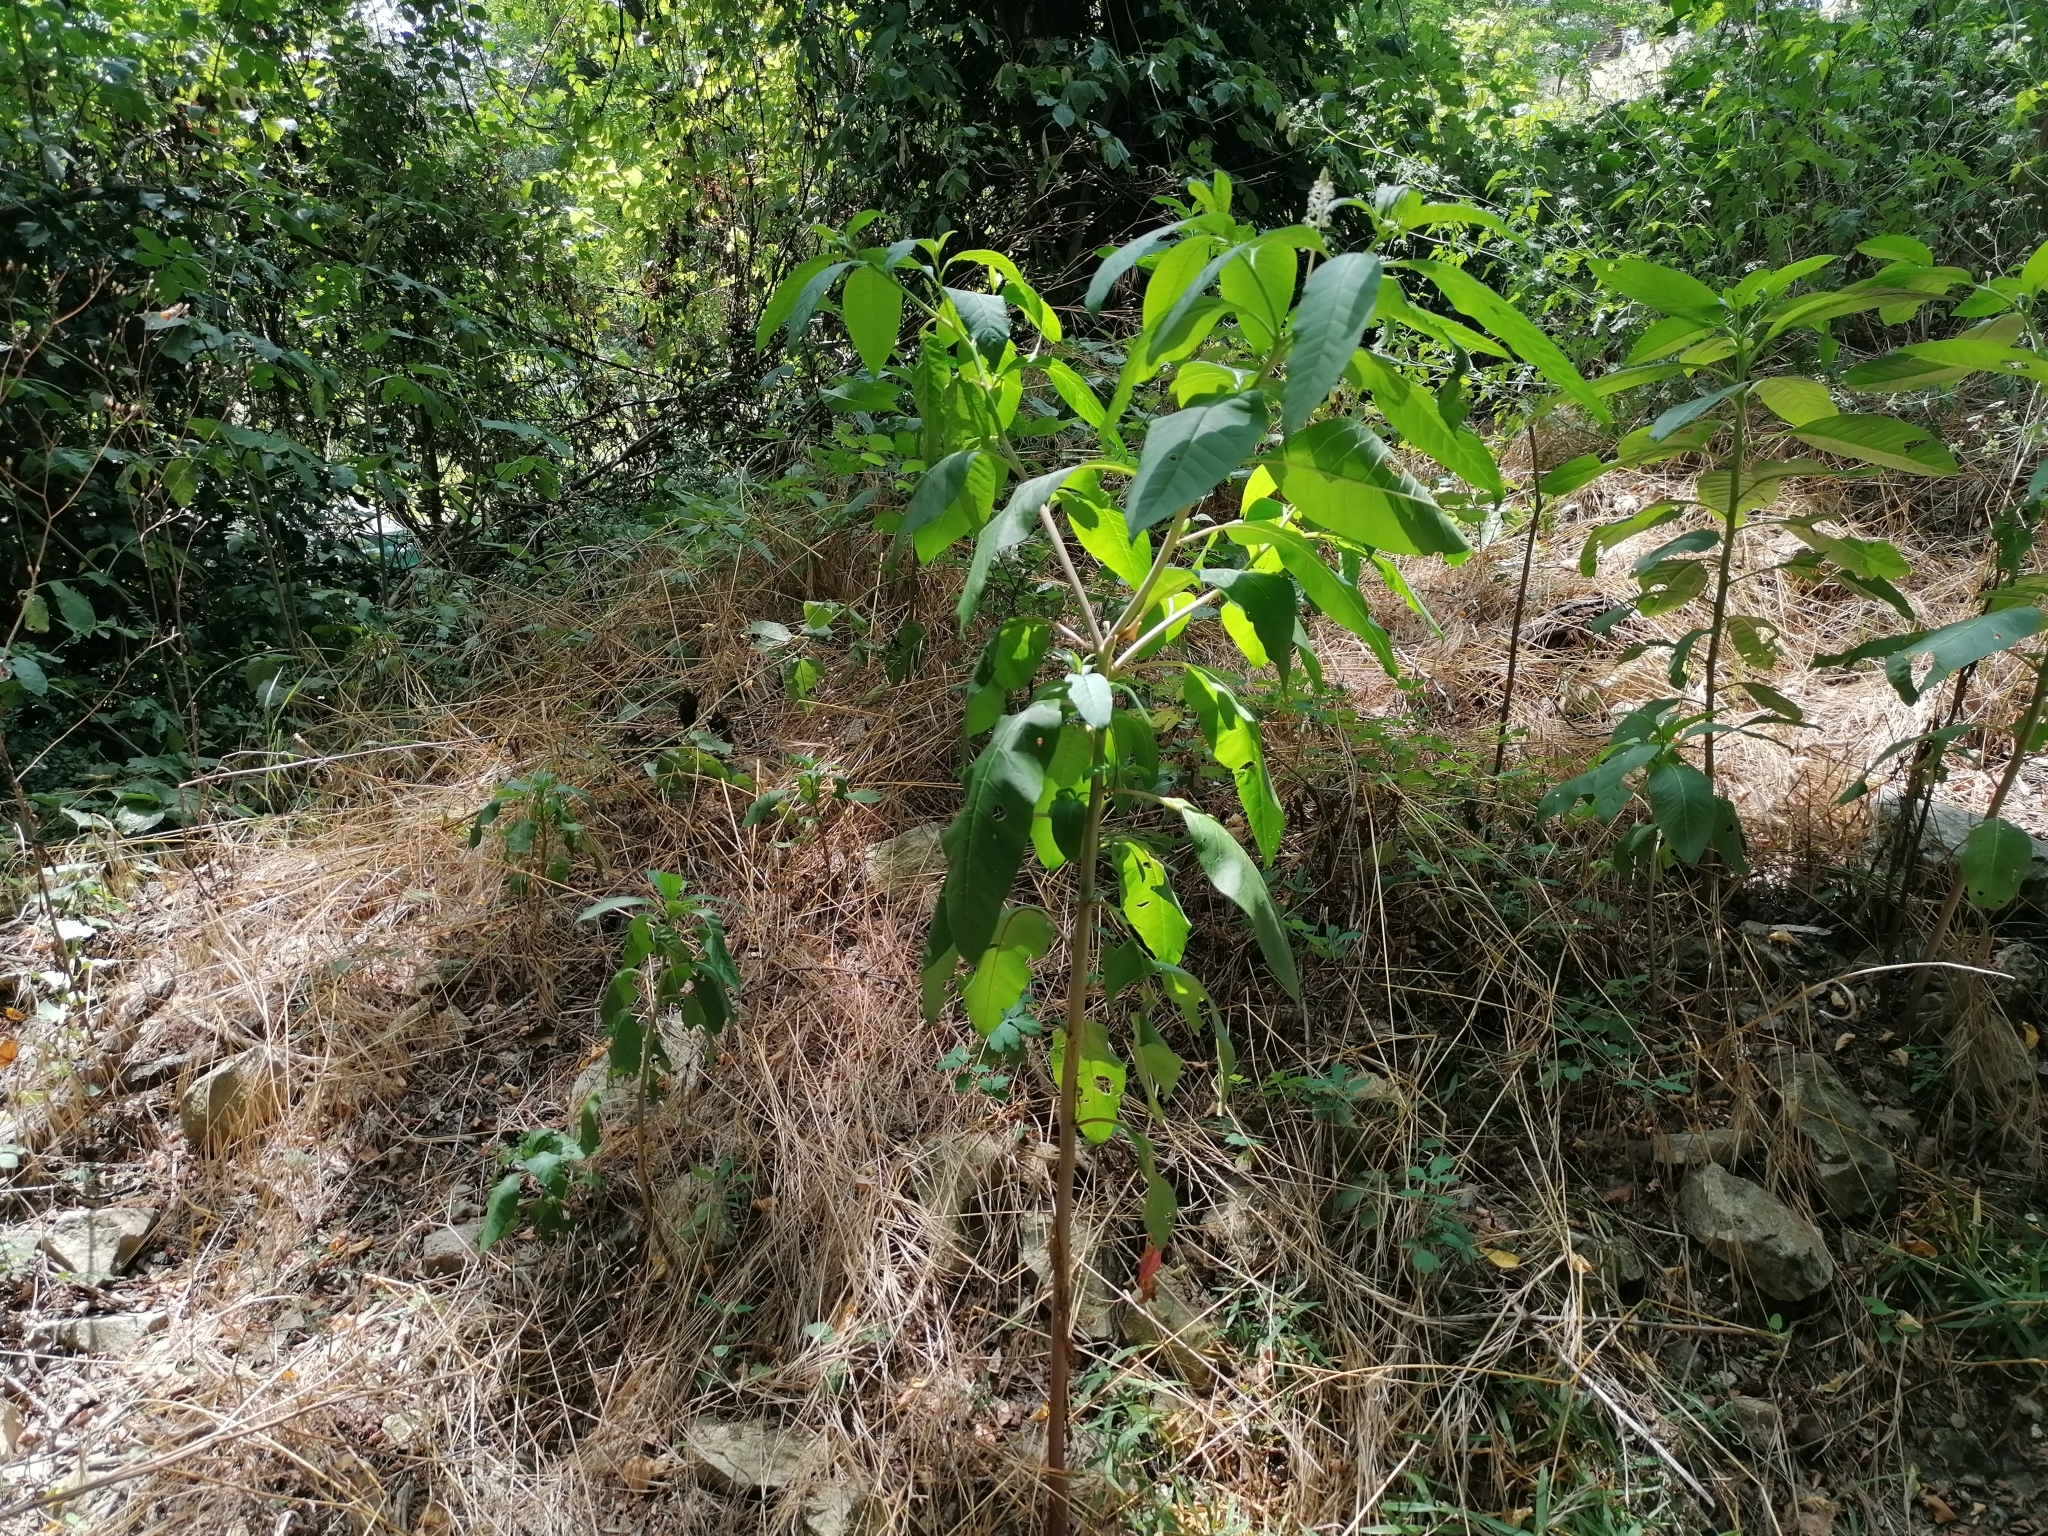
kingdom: Plantae
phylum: Tracheophyta
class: Magnoliopsida
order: Caryophyllales
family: Phytolaccaceae
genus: Phytolacca
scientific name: Phytolacca americana
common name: American pokeweed
